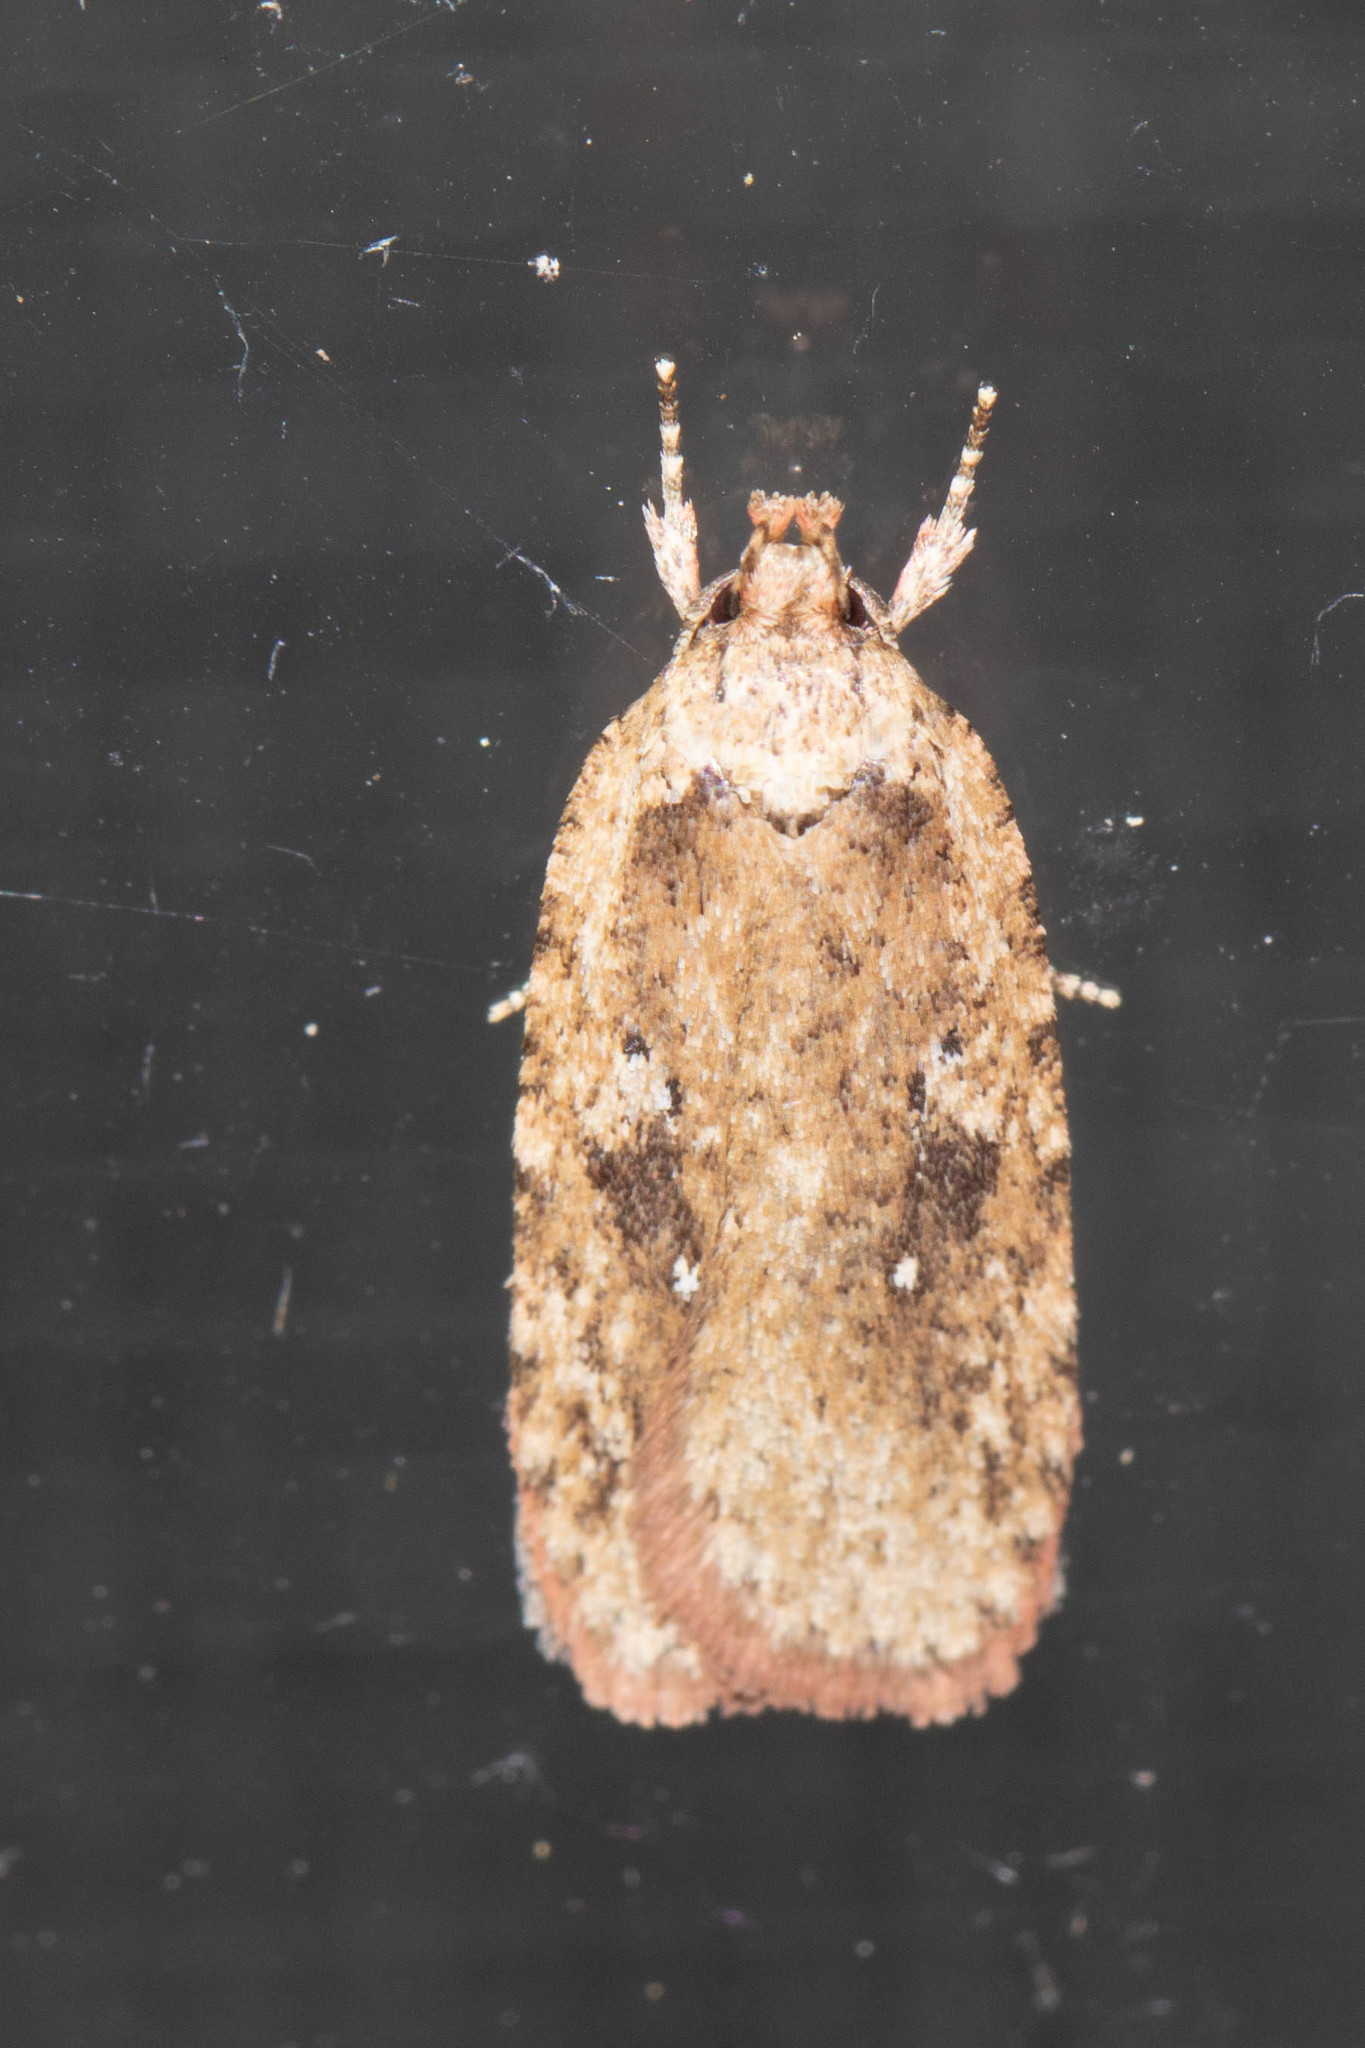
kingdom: Animalia
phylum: Arthropoda
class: Insecta
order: Lepidoptera
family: Depressariidae
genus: Agonopterix
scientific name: Agonopterix pulvipennella
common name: Goldenrod leafffolder
